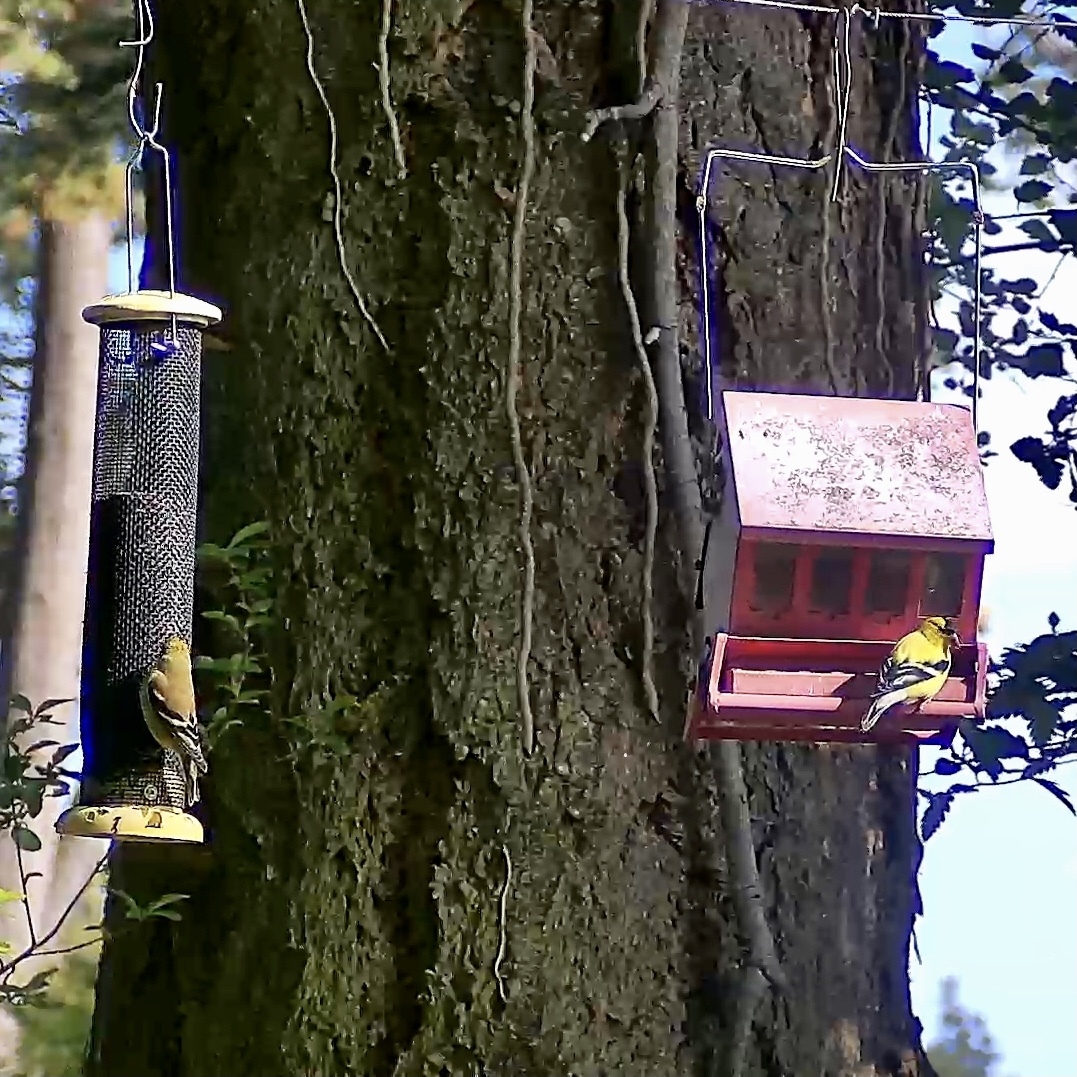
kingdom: Animalia
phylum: Chordata
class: Aves
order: Passeriformes
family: Fringillidae
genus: Spinus
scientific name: Spinus tristis
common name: American goldfinch
